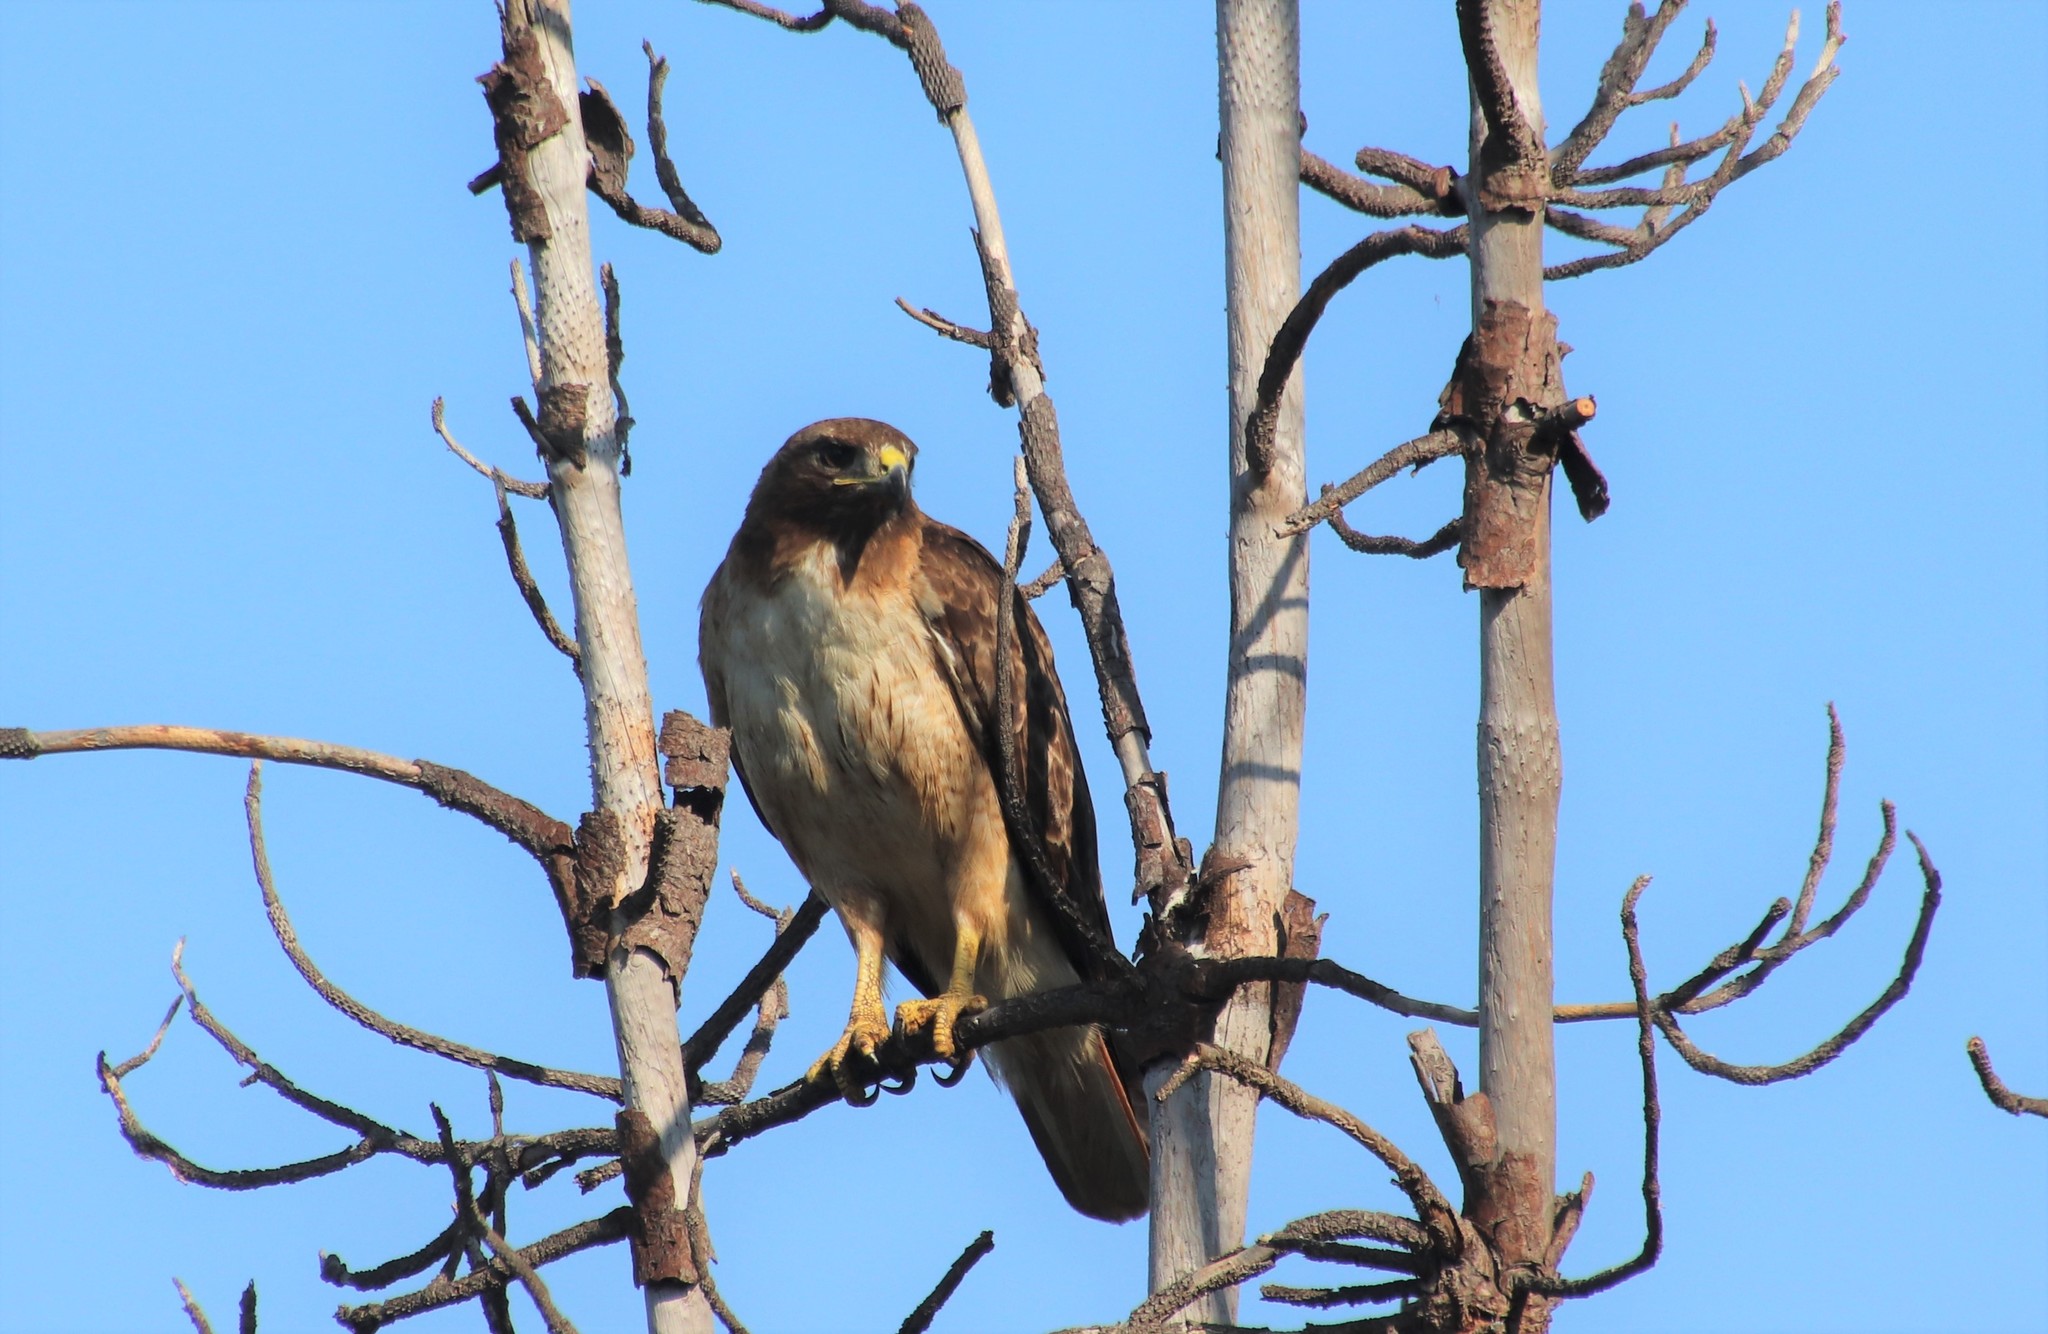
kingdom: Animalia
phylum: Chordata
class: Aves
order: Accipitriformes
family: Accipitridae
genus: Buteo
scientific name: Buteo jamaicensis
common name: Red-tailed hawk
